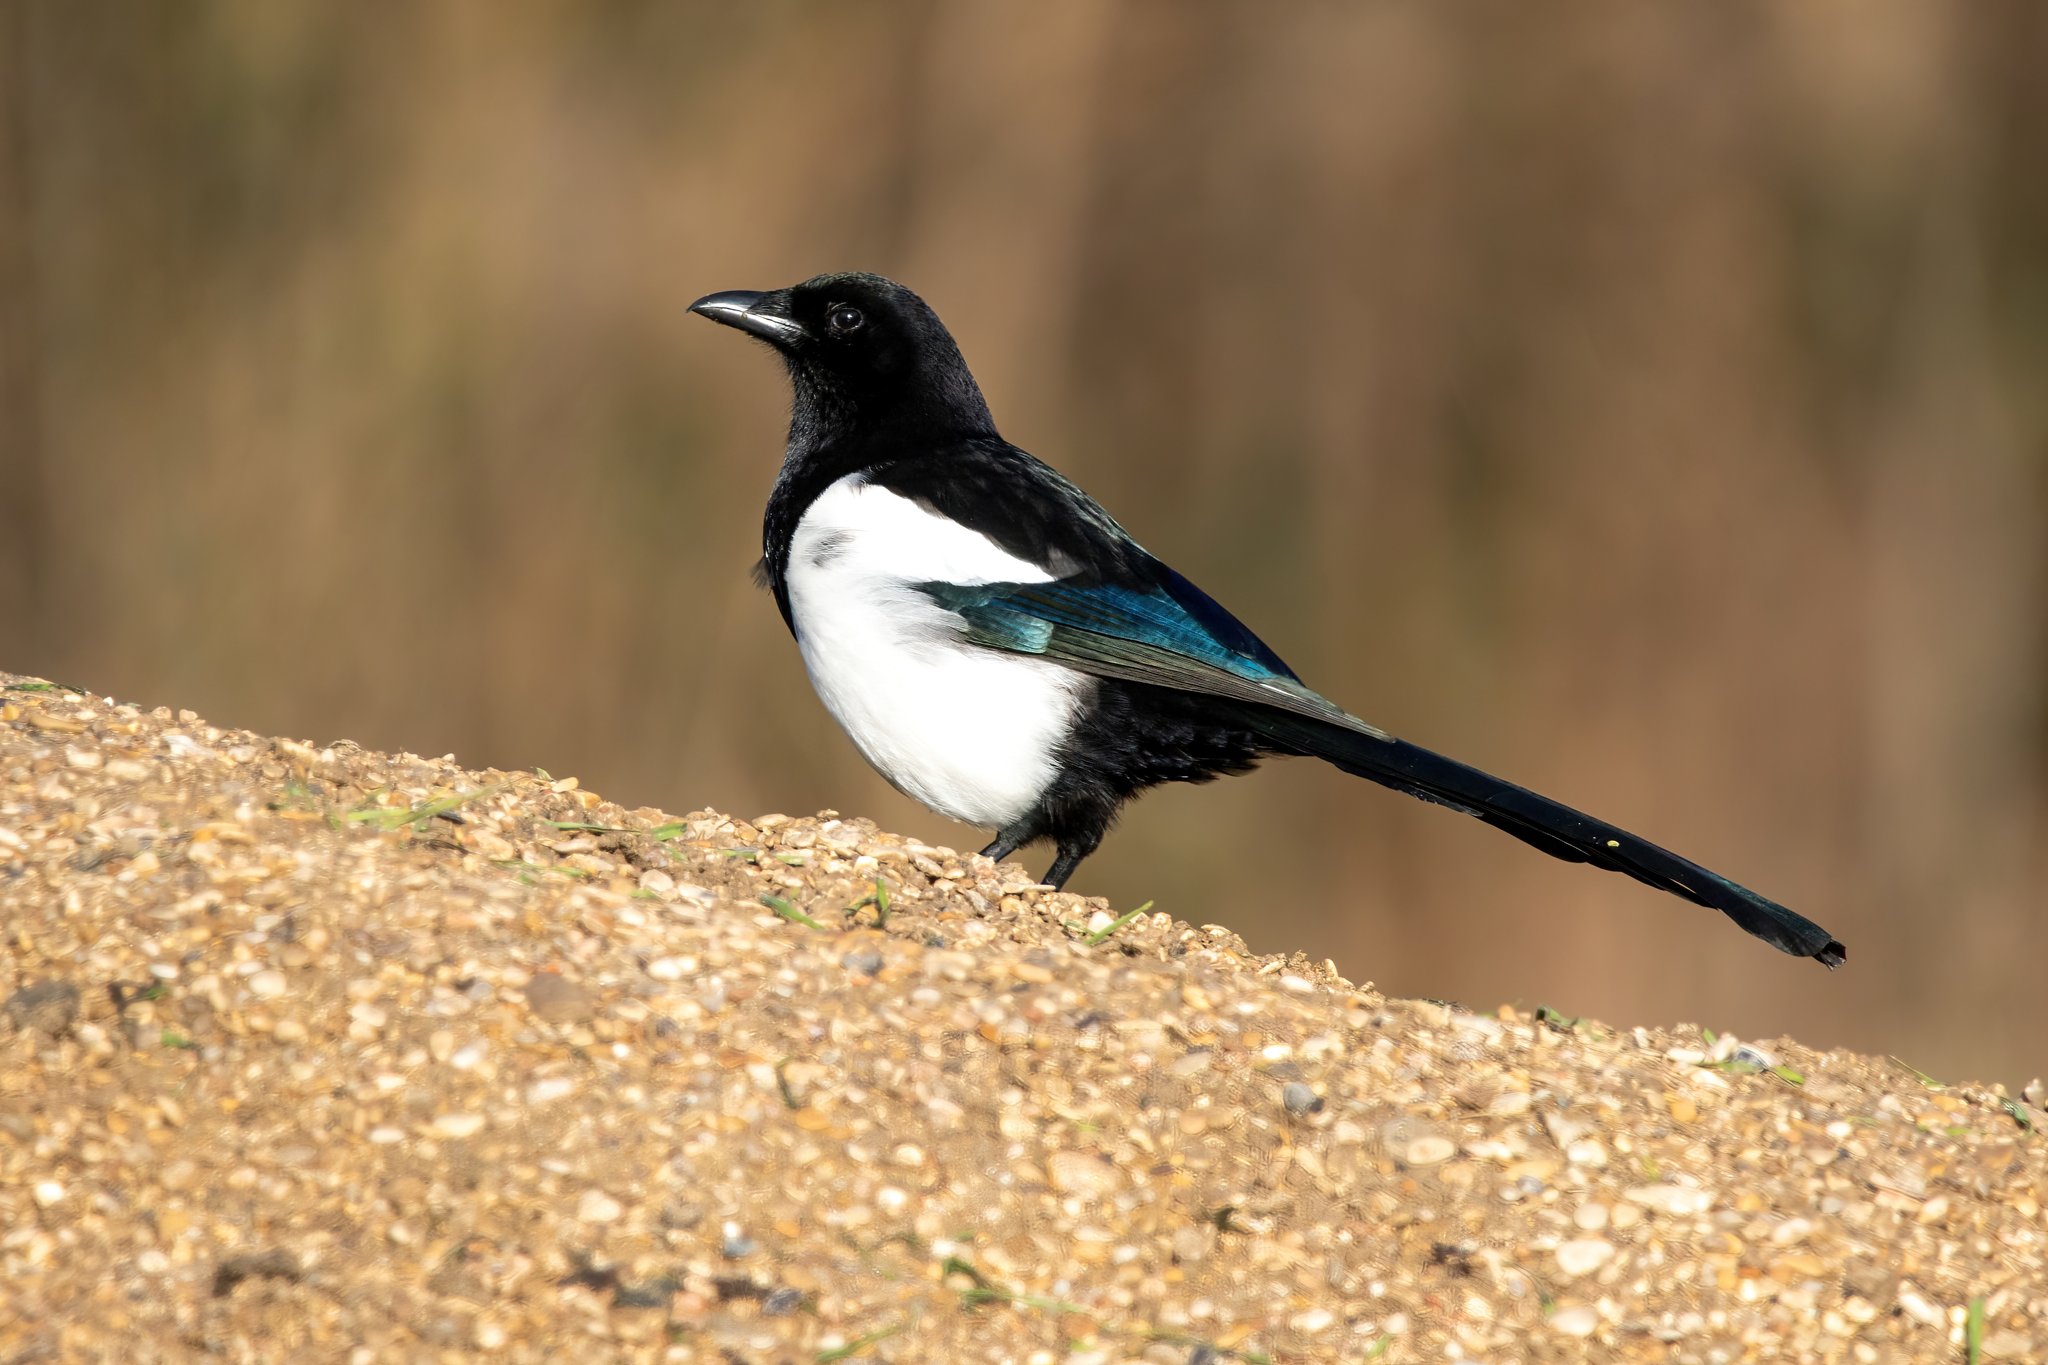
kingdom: Animalia
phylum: Chordata
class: Aves
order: Passeriformes
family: Corvidae
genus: Pica
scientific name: Pica pica
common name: Eurasian magpie
